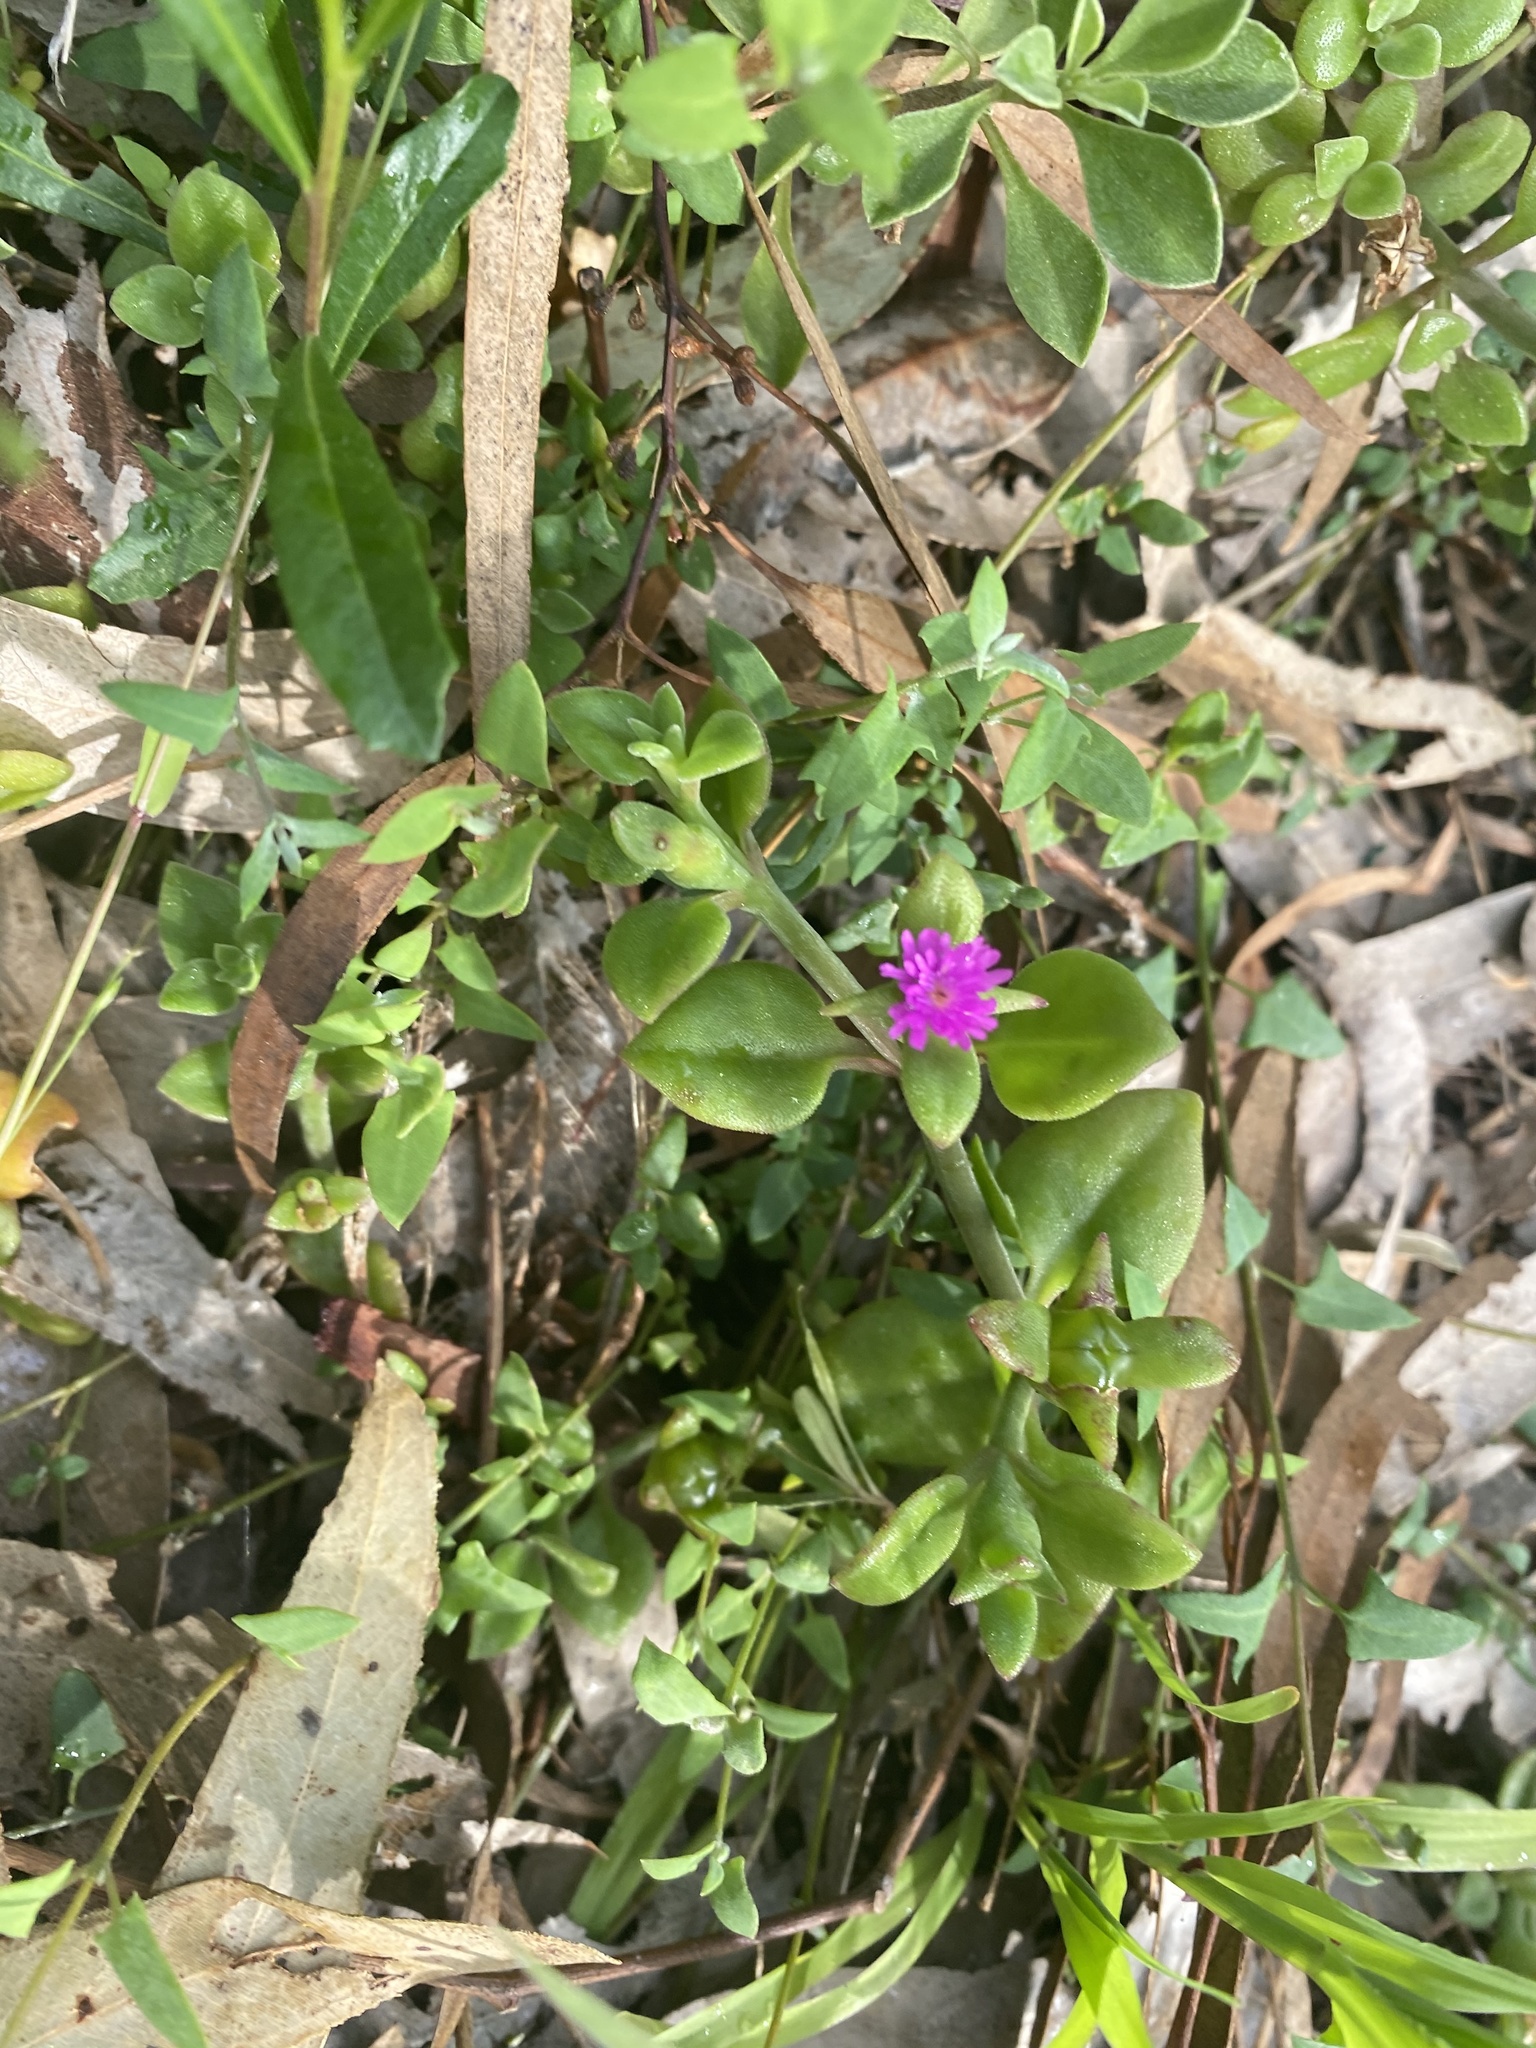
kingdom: Plantae
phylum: Tracheophyta
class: Magnoliopsida
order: Caryophyllales
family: Aizoaceae
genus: Mesembryanthemum
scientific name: Mesembryanthemum cordifolium
